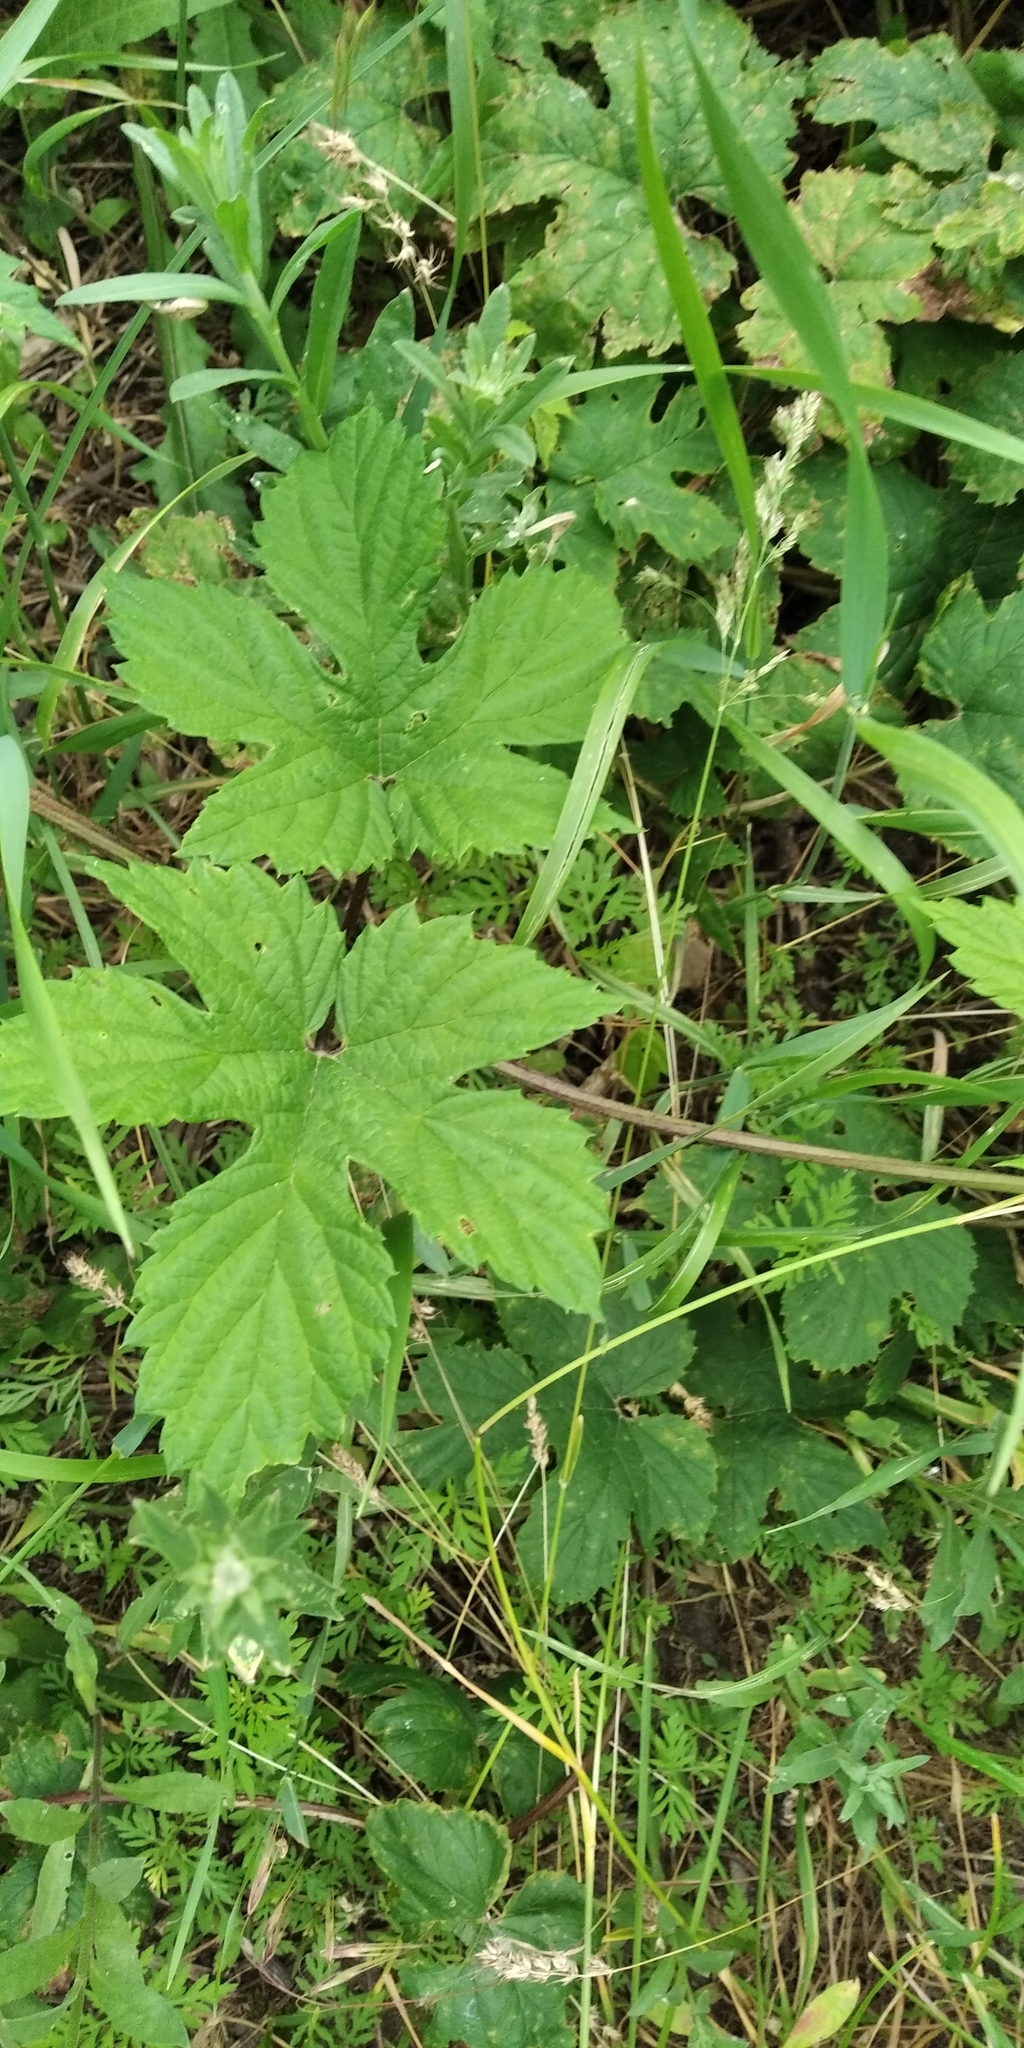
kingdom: Plantae
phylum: Tracheophyta
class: Magnoliopsida
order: Rosales
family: Cannabaceae
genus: Humulus
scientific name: Humulus lupulus
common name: Hop
